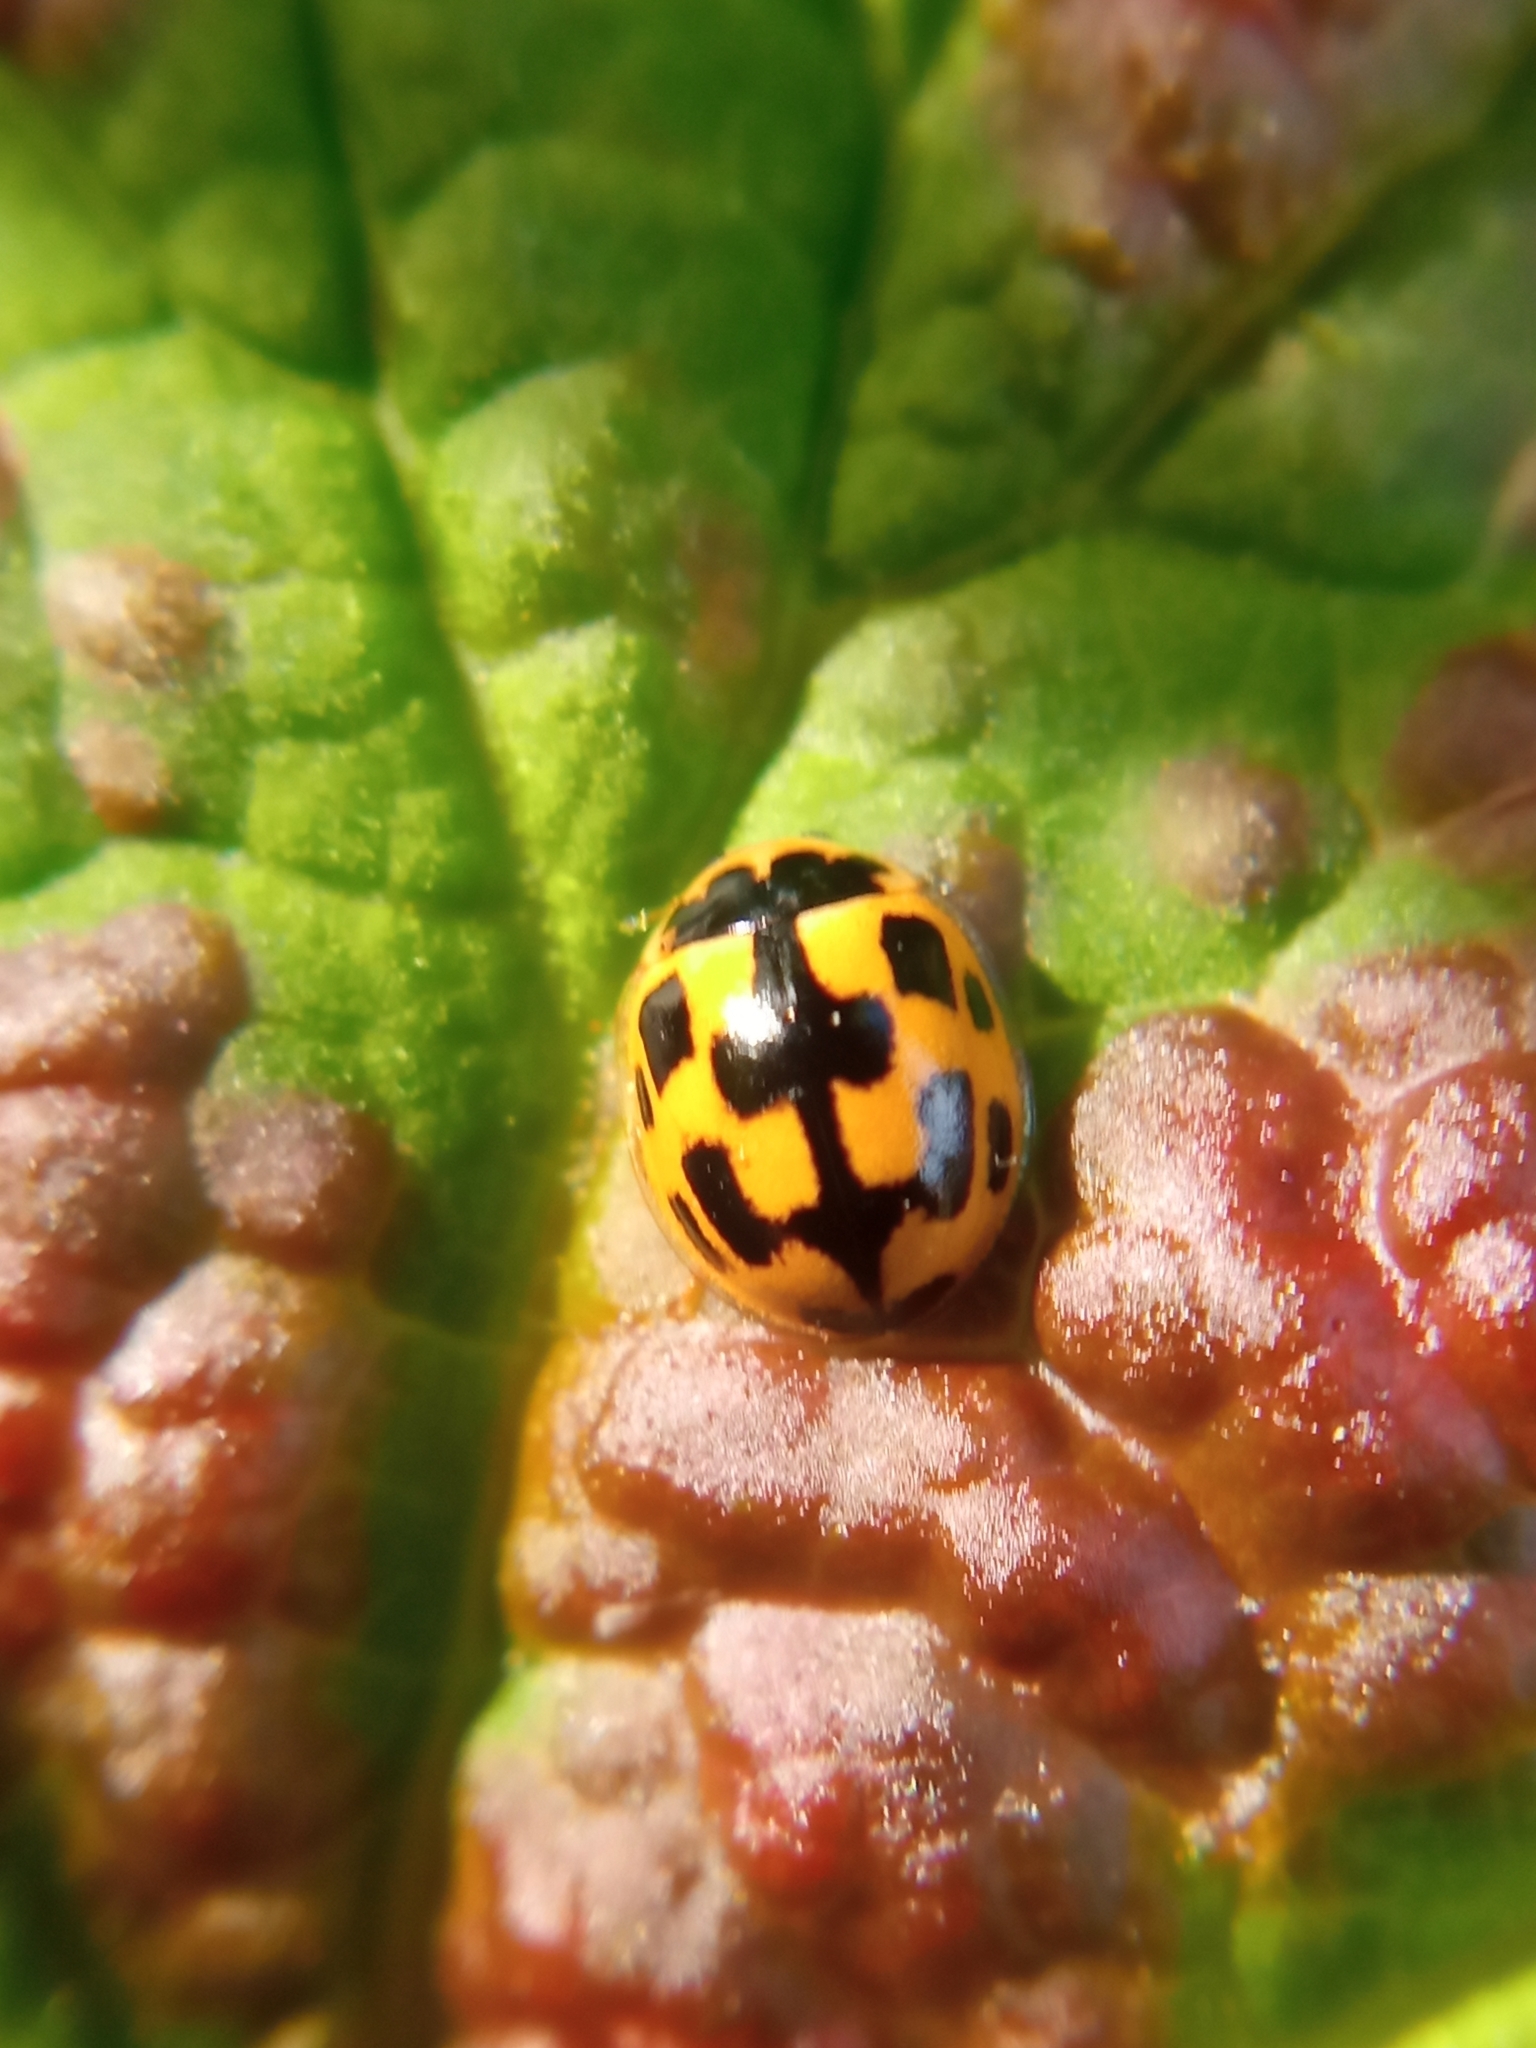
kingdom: Animalia
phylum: Arthropoda
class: Insecta
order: Coleoptera
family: Coccinellidae
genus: Propylaea
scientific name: Propylaea quatuordecimpunctata
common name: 14-spotted ladybird beetle
